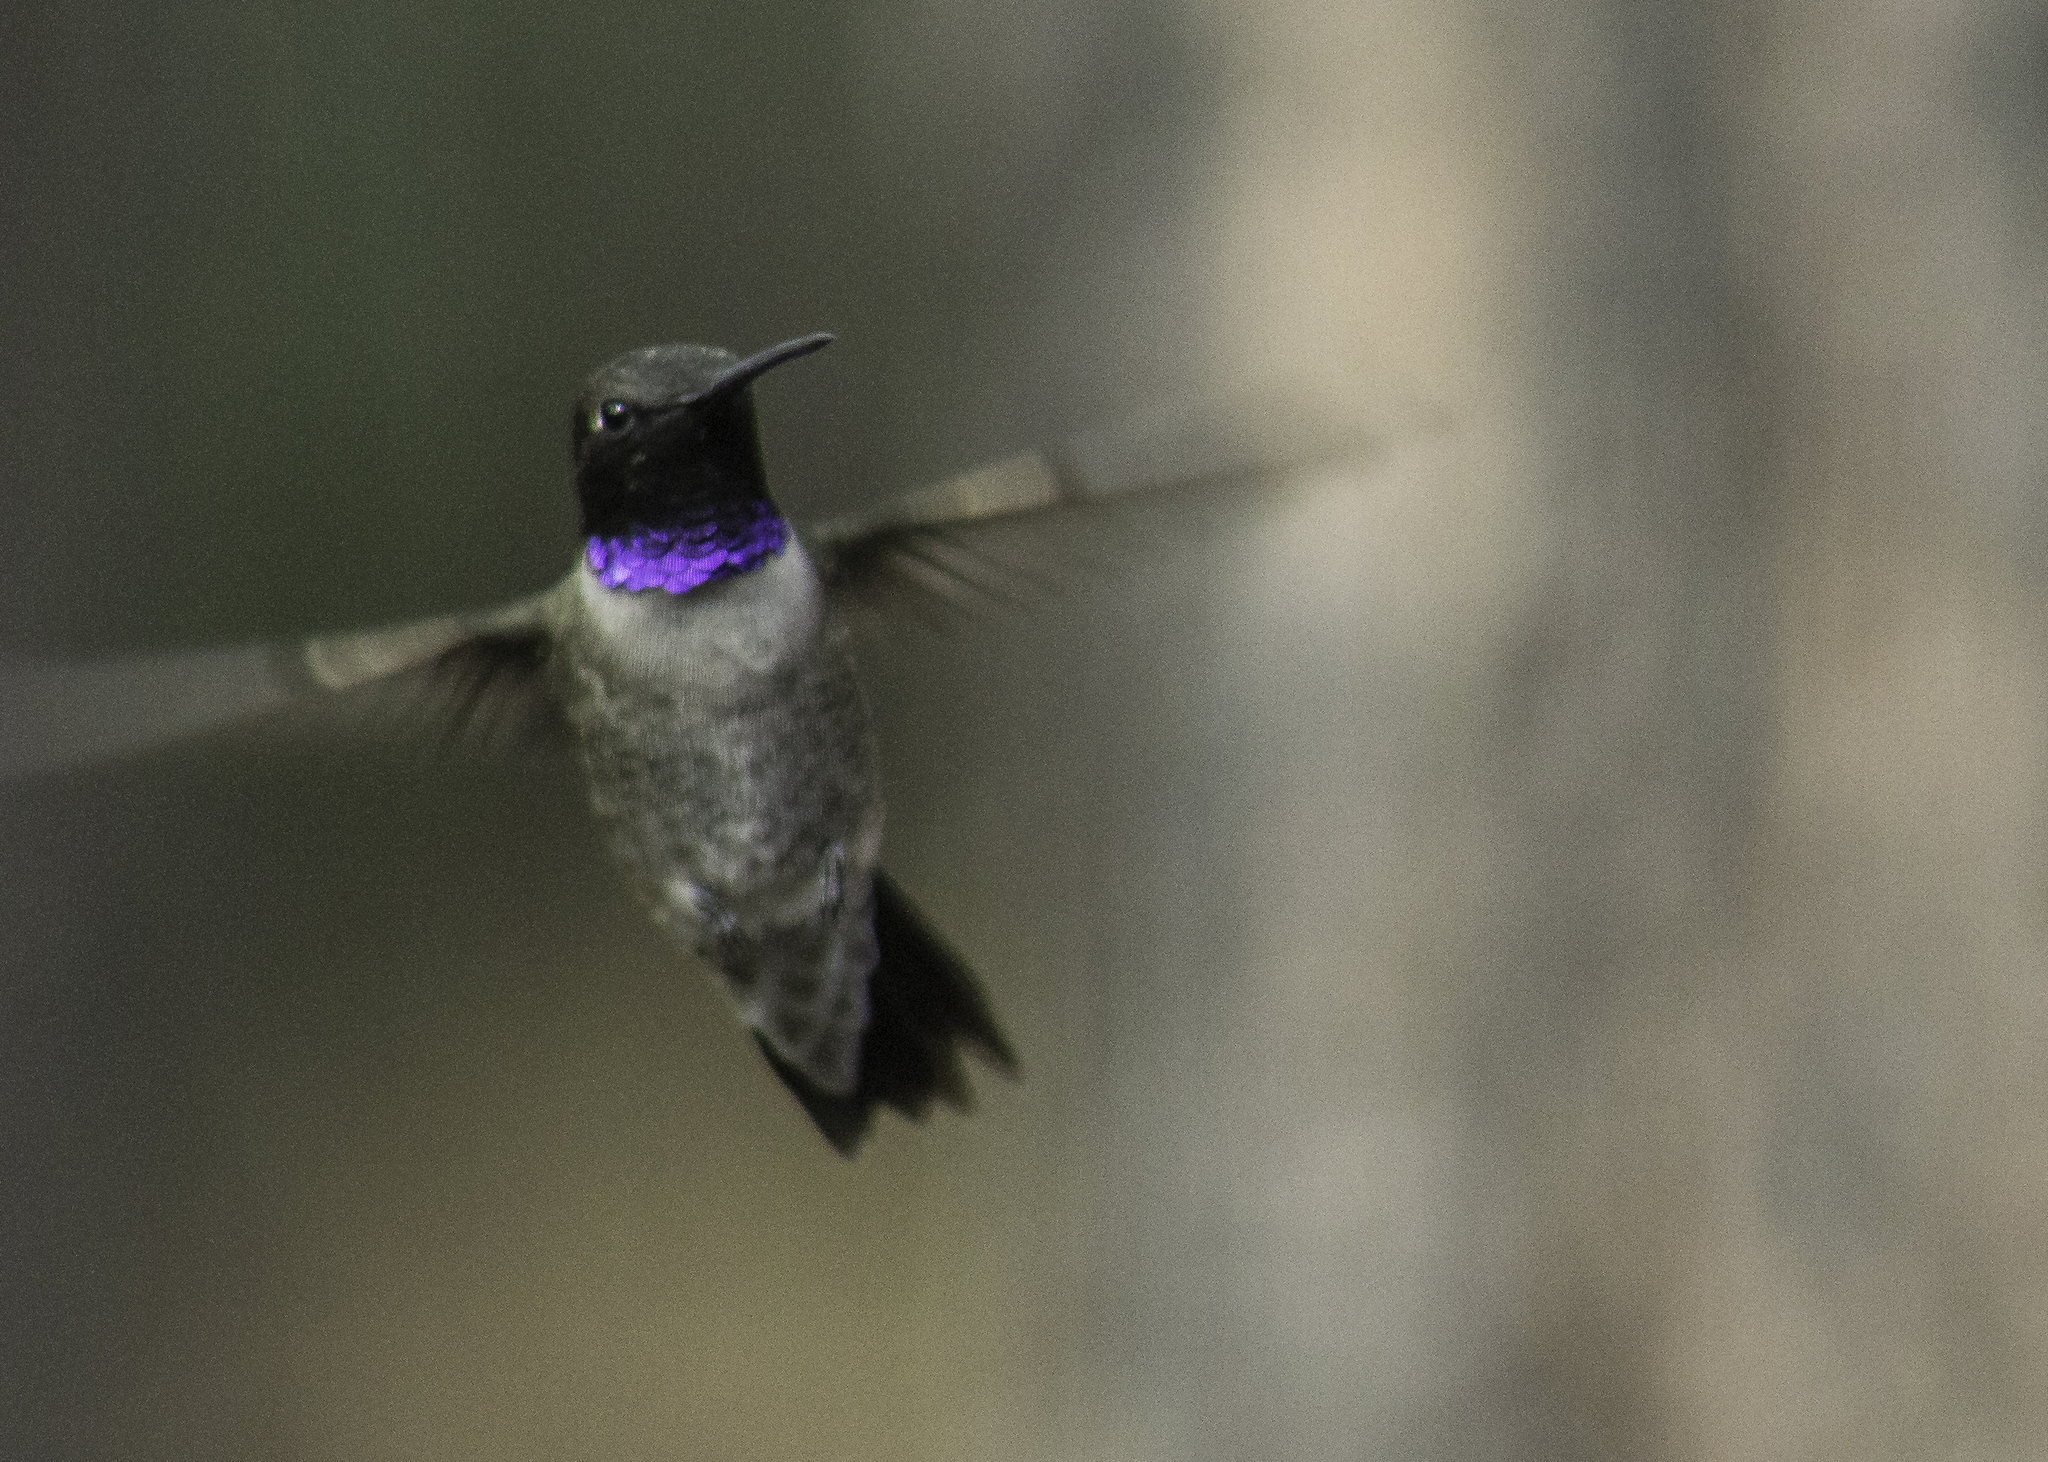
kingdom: Animalia
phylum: Chordata
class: Aves
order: Apodiformes
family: Trochilidae
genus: Archilochus
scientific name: Archilochus alexandri
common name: Black-chinned hummingbird
